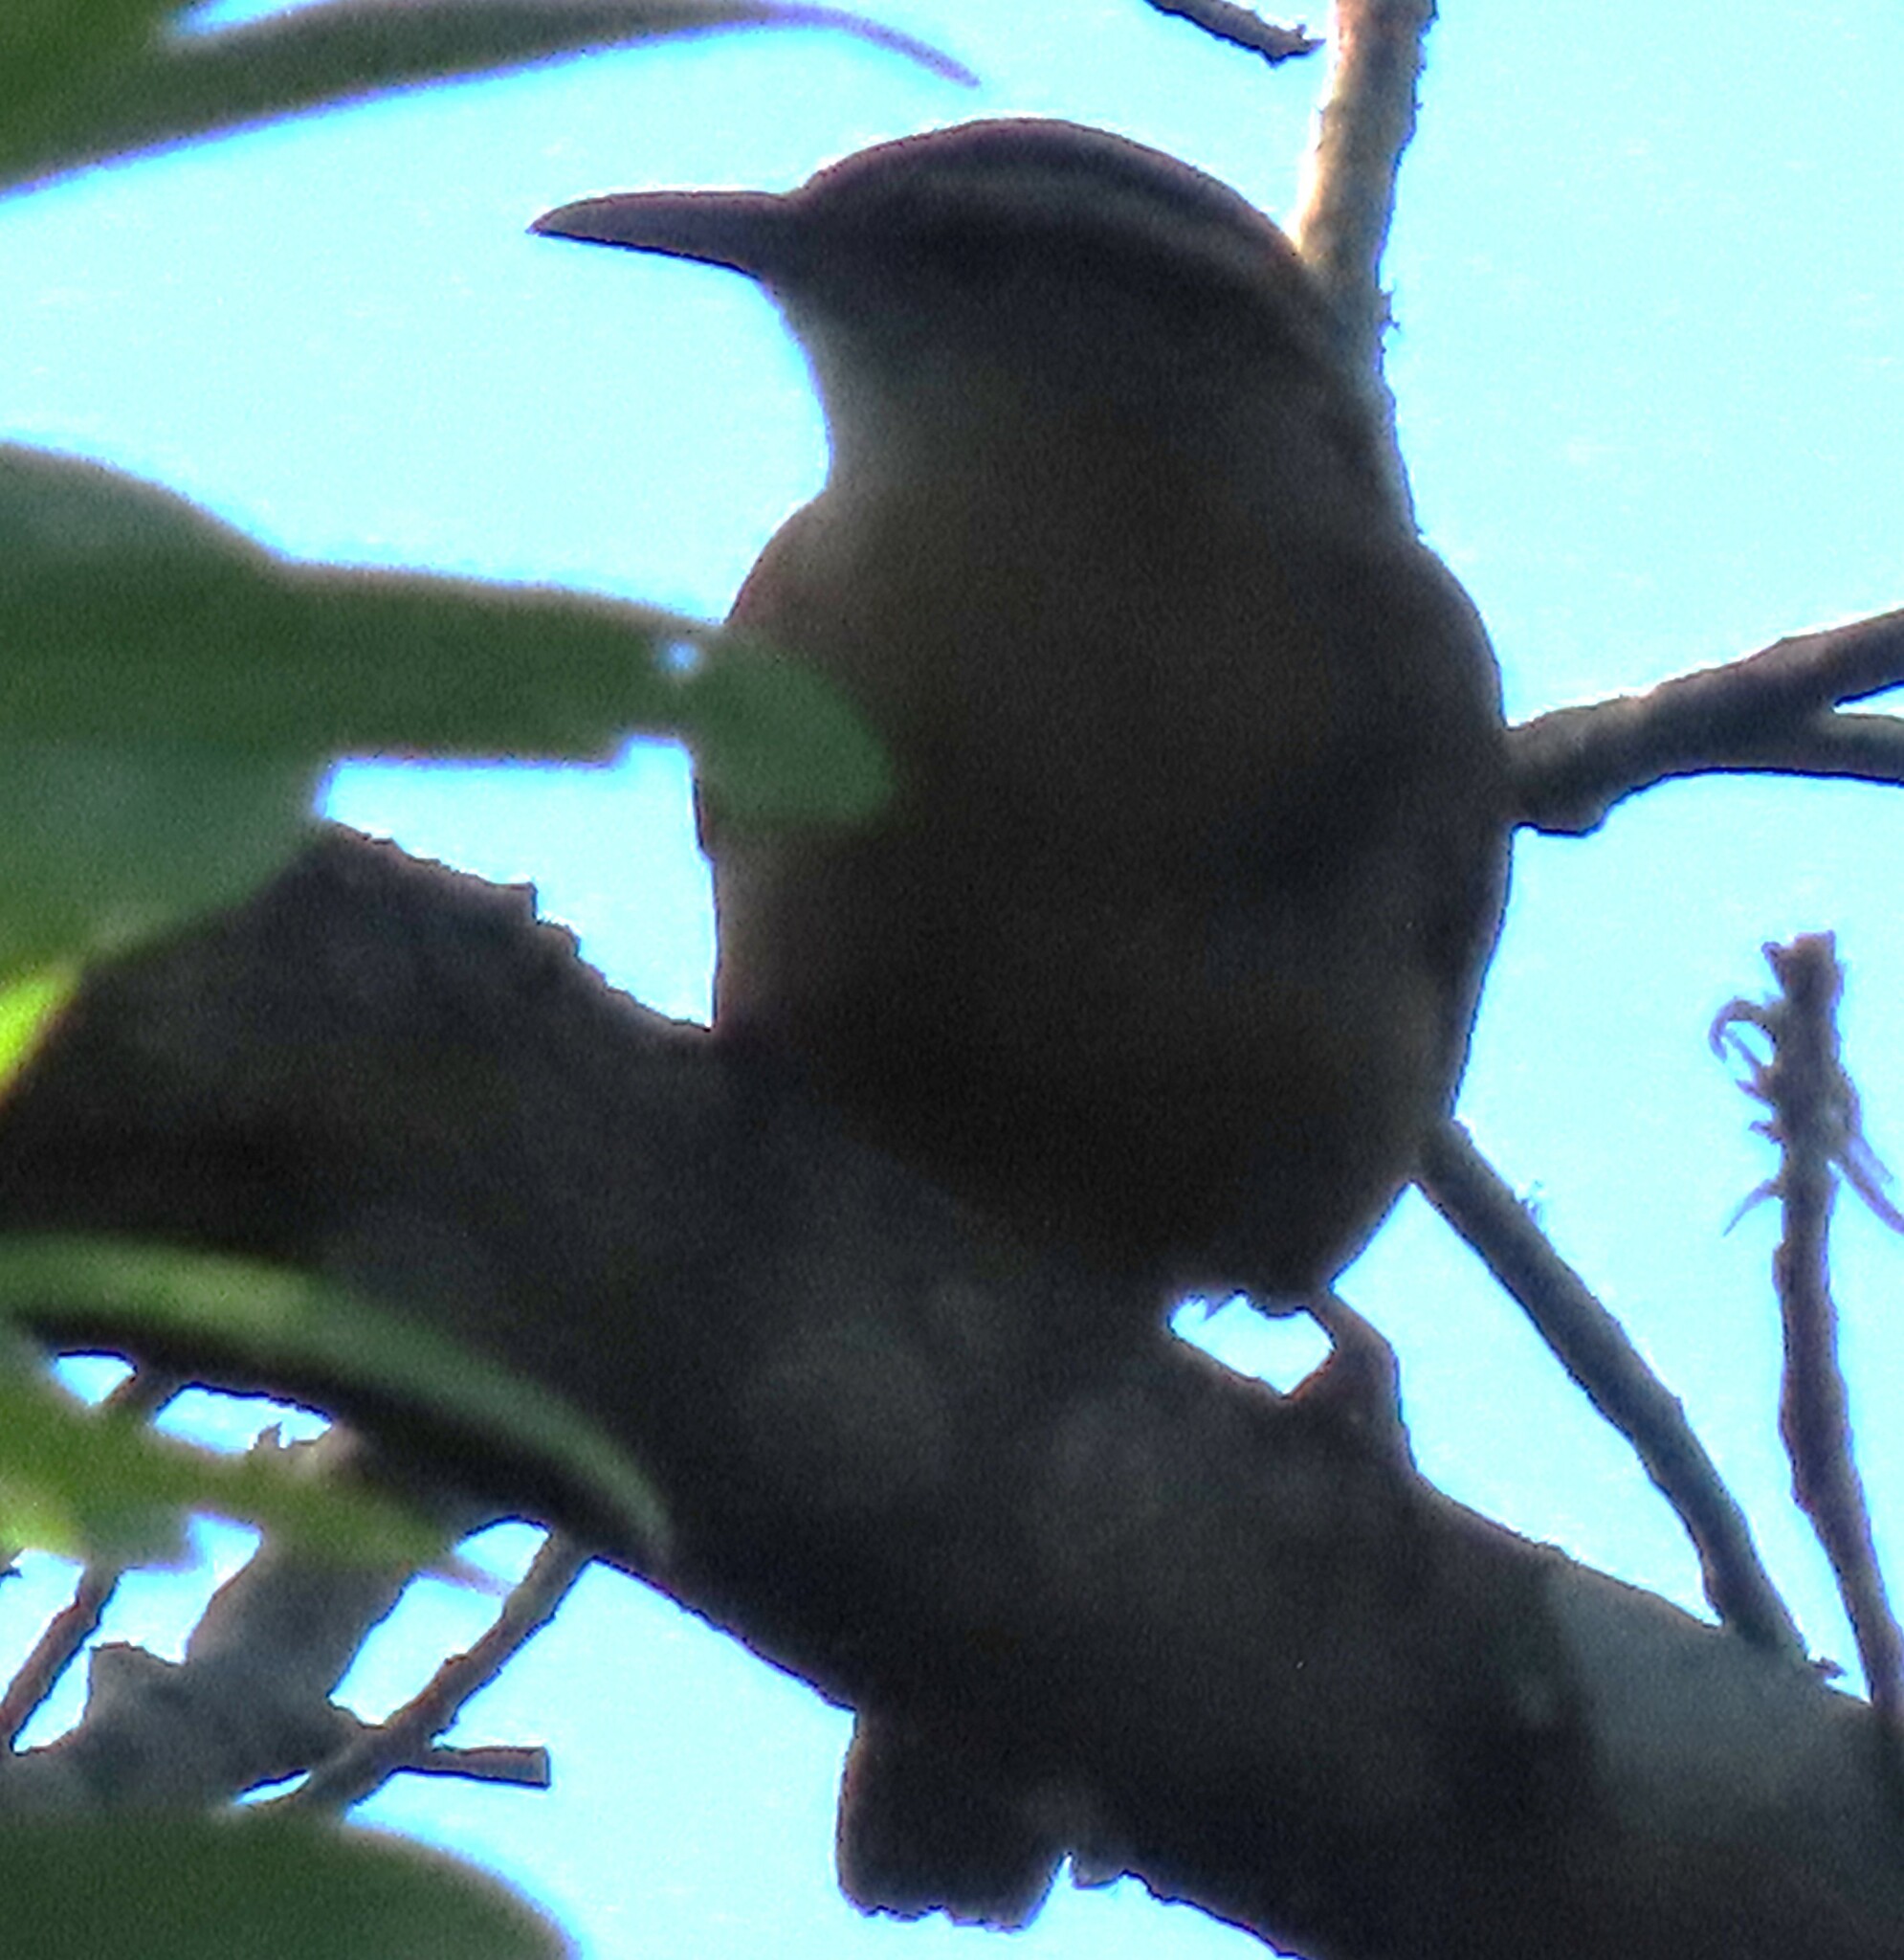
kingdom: Animalia
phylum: Chordata
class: Aves
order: Passeriformes
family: Troglodytidae
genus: Thryothorus
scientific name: Thryothorus ludovicianus
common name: Carolina wren
